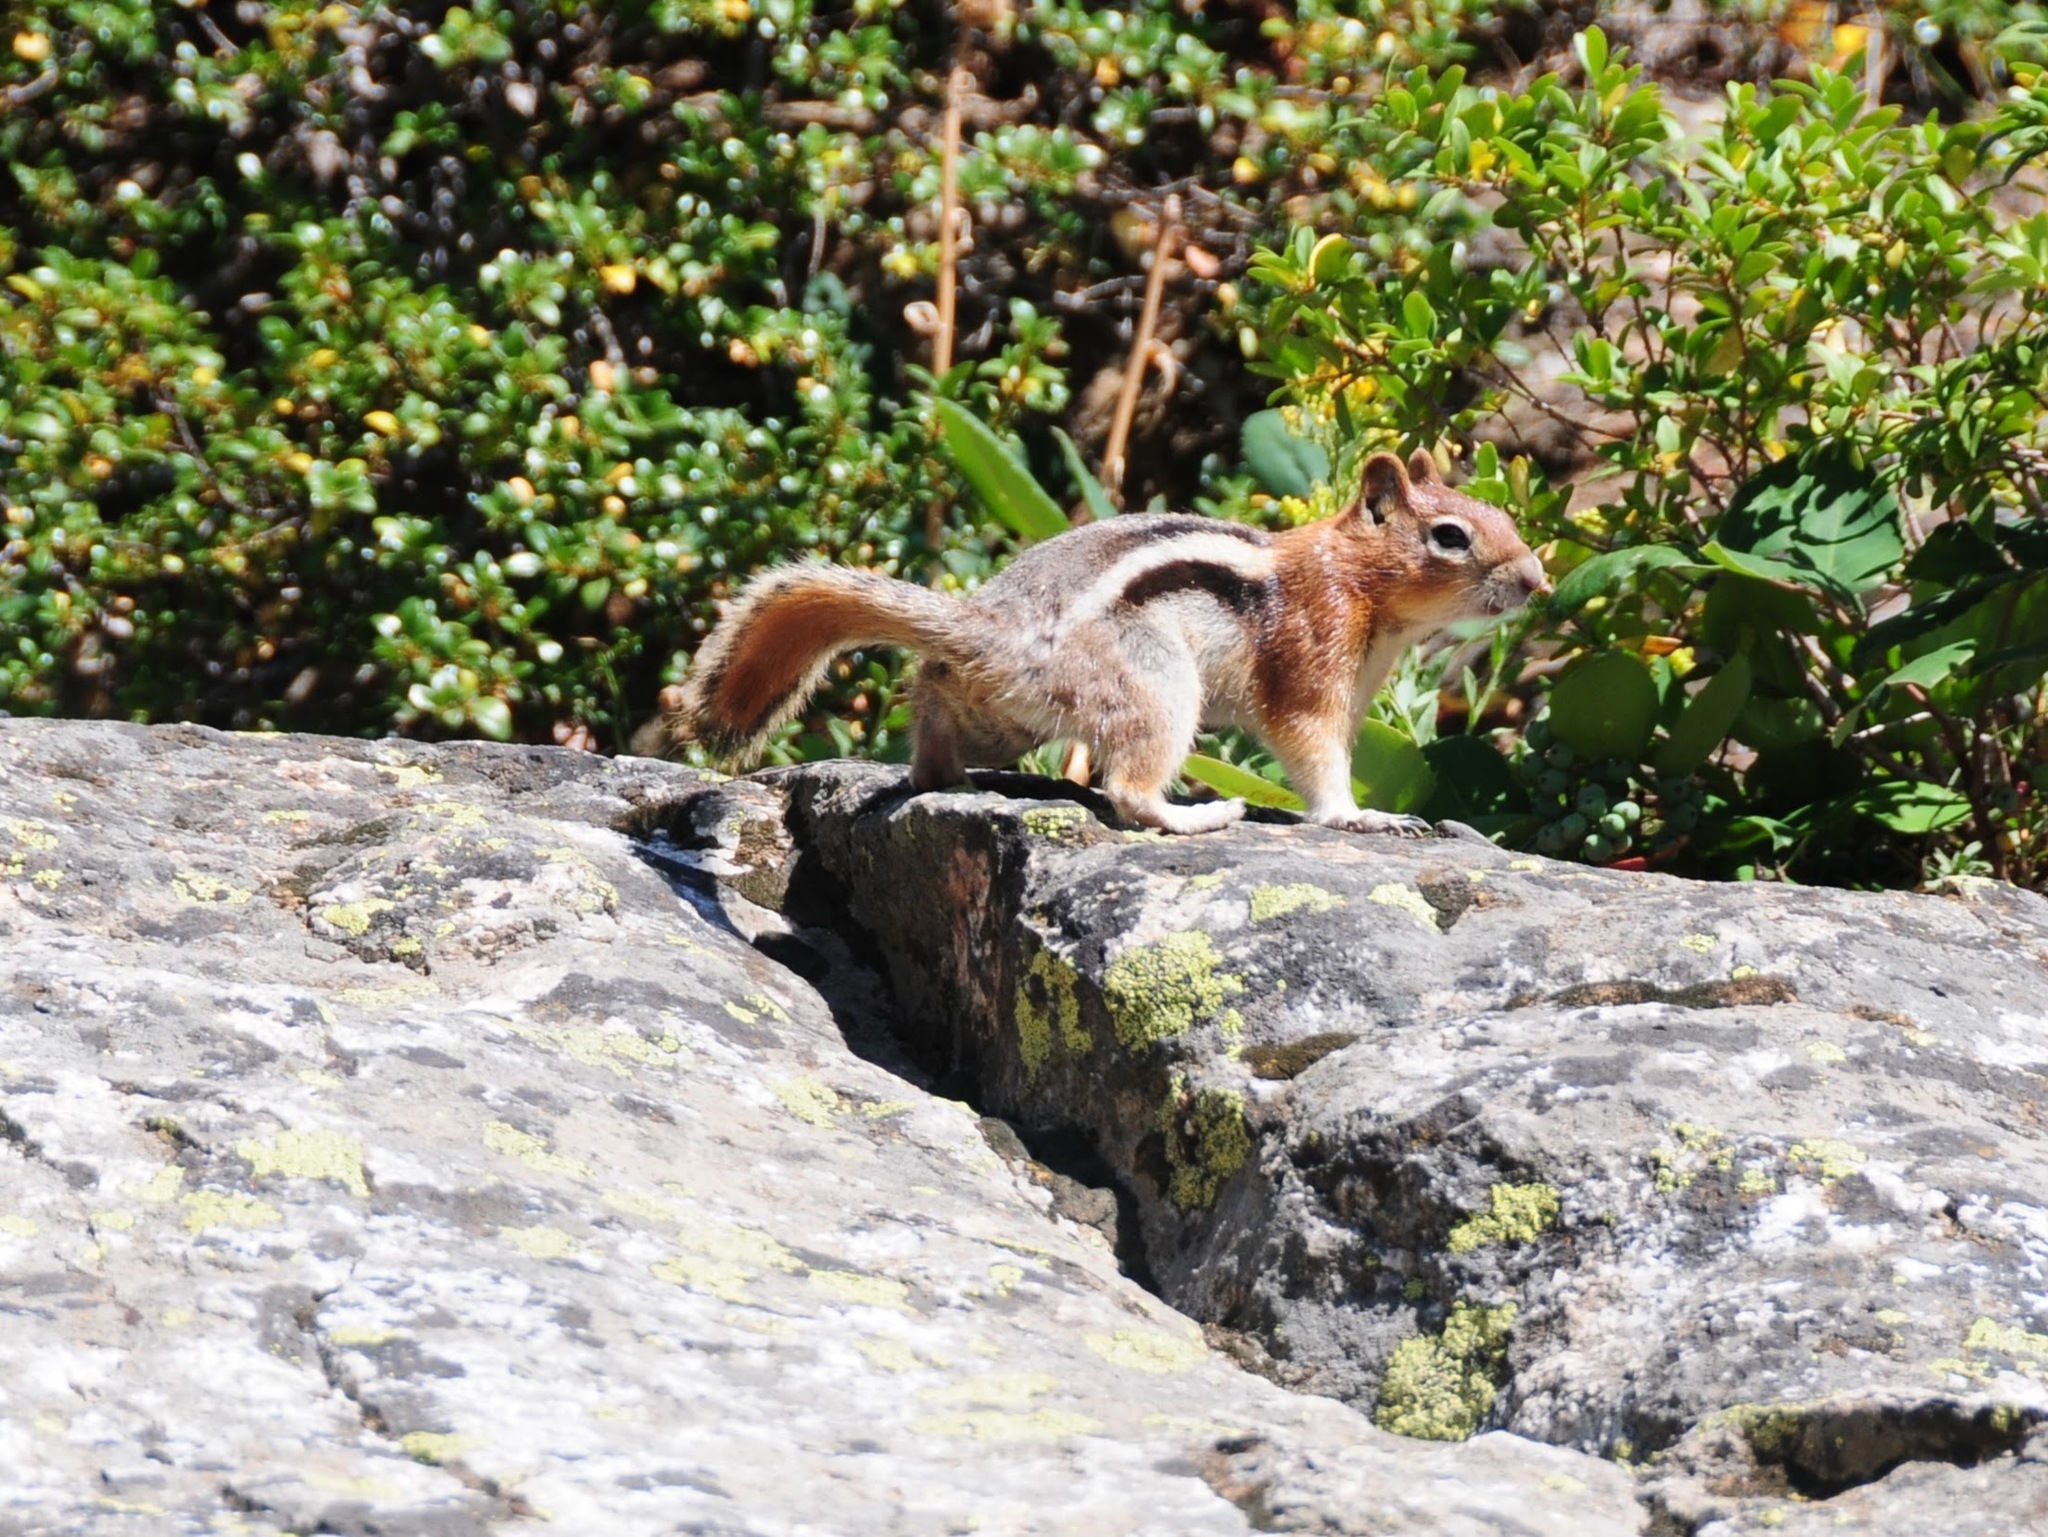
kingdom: Animalia
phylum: Chordata
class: Mammalia
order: Rodentia
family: Sciuridae
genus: Callospermophilus
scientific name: Callospermophilus lateralis
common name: Golden-mantled ground squirrel
